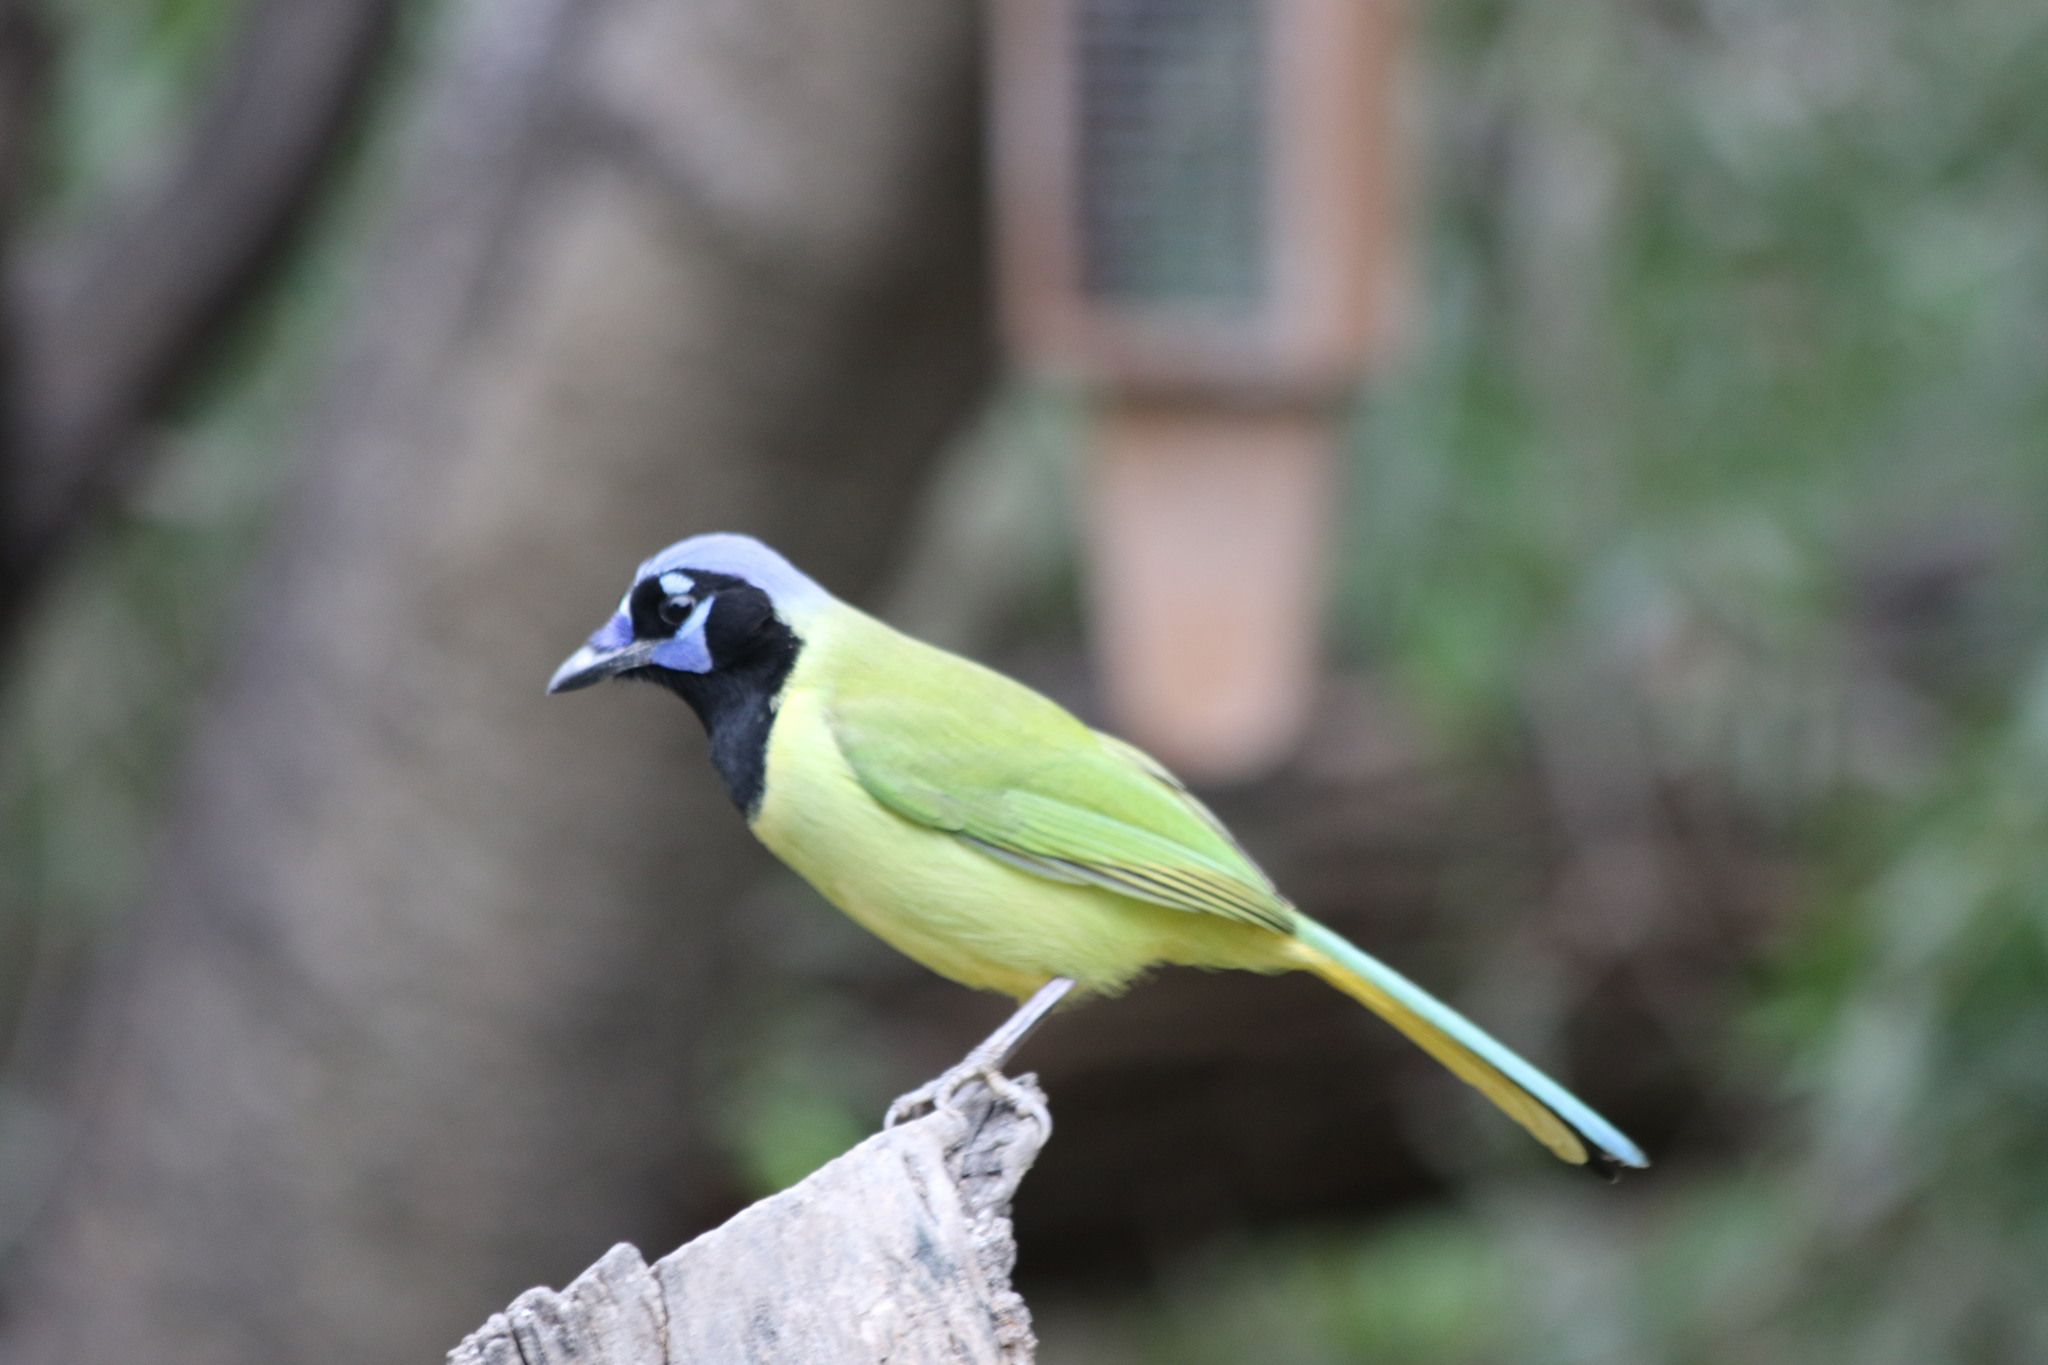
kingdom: Animalia
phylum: Chordata
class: Aves
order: Passeriformes
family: Corvidae
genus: Cyanocorax
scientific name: Cyanocorax yncas
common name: Green jay
